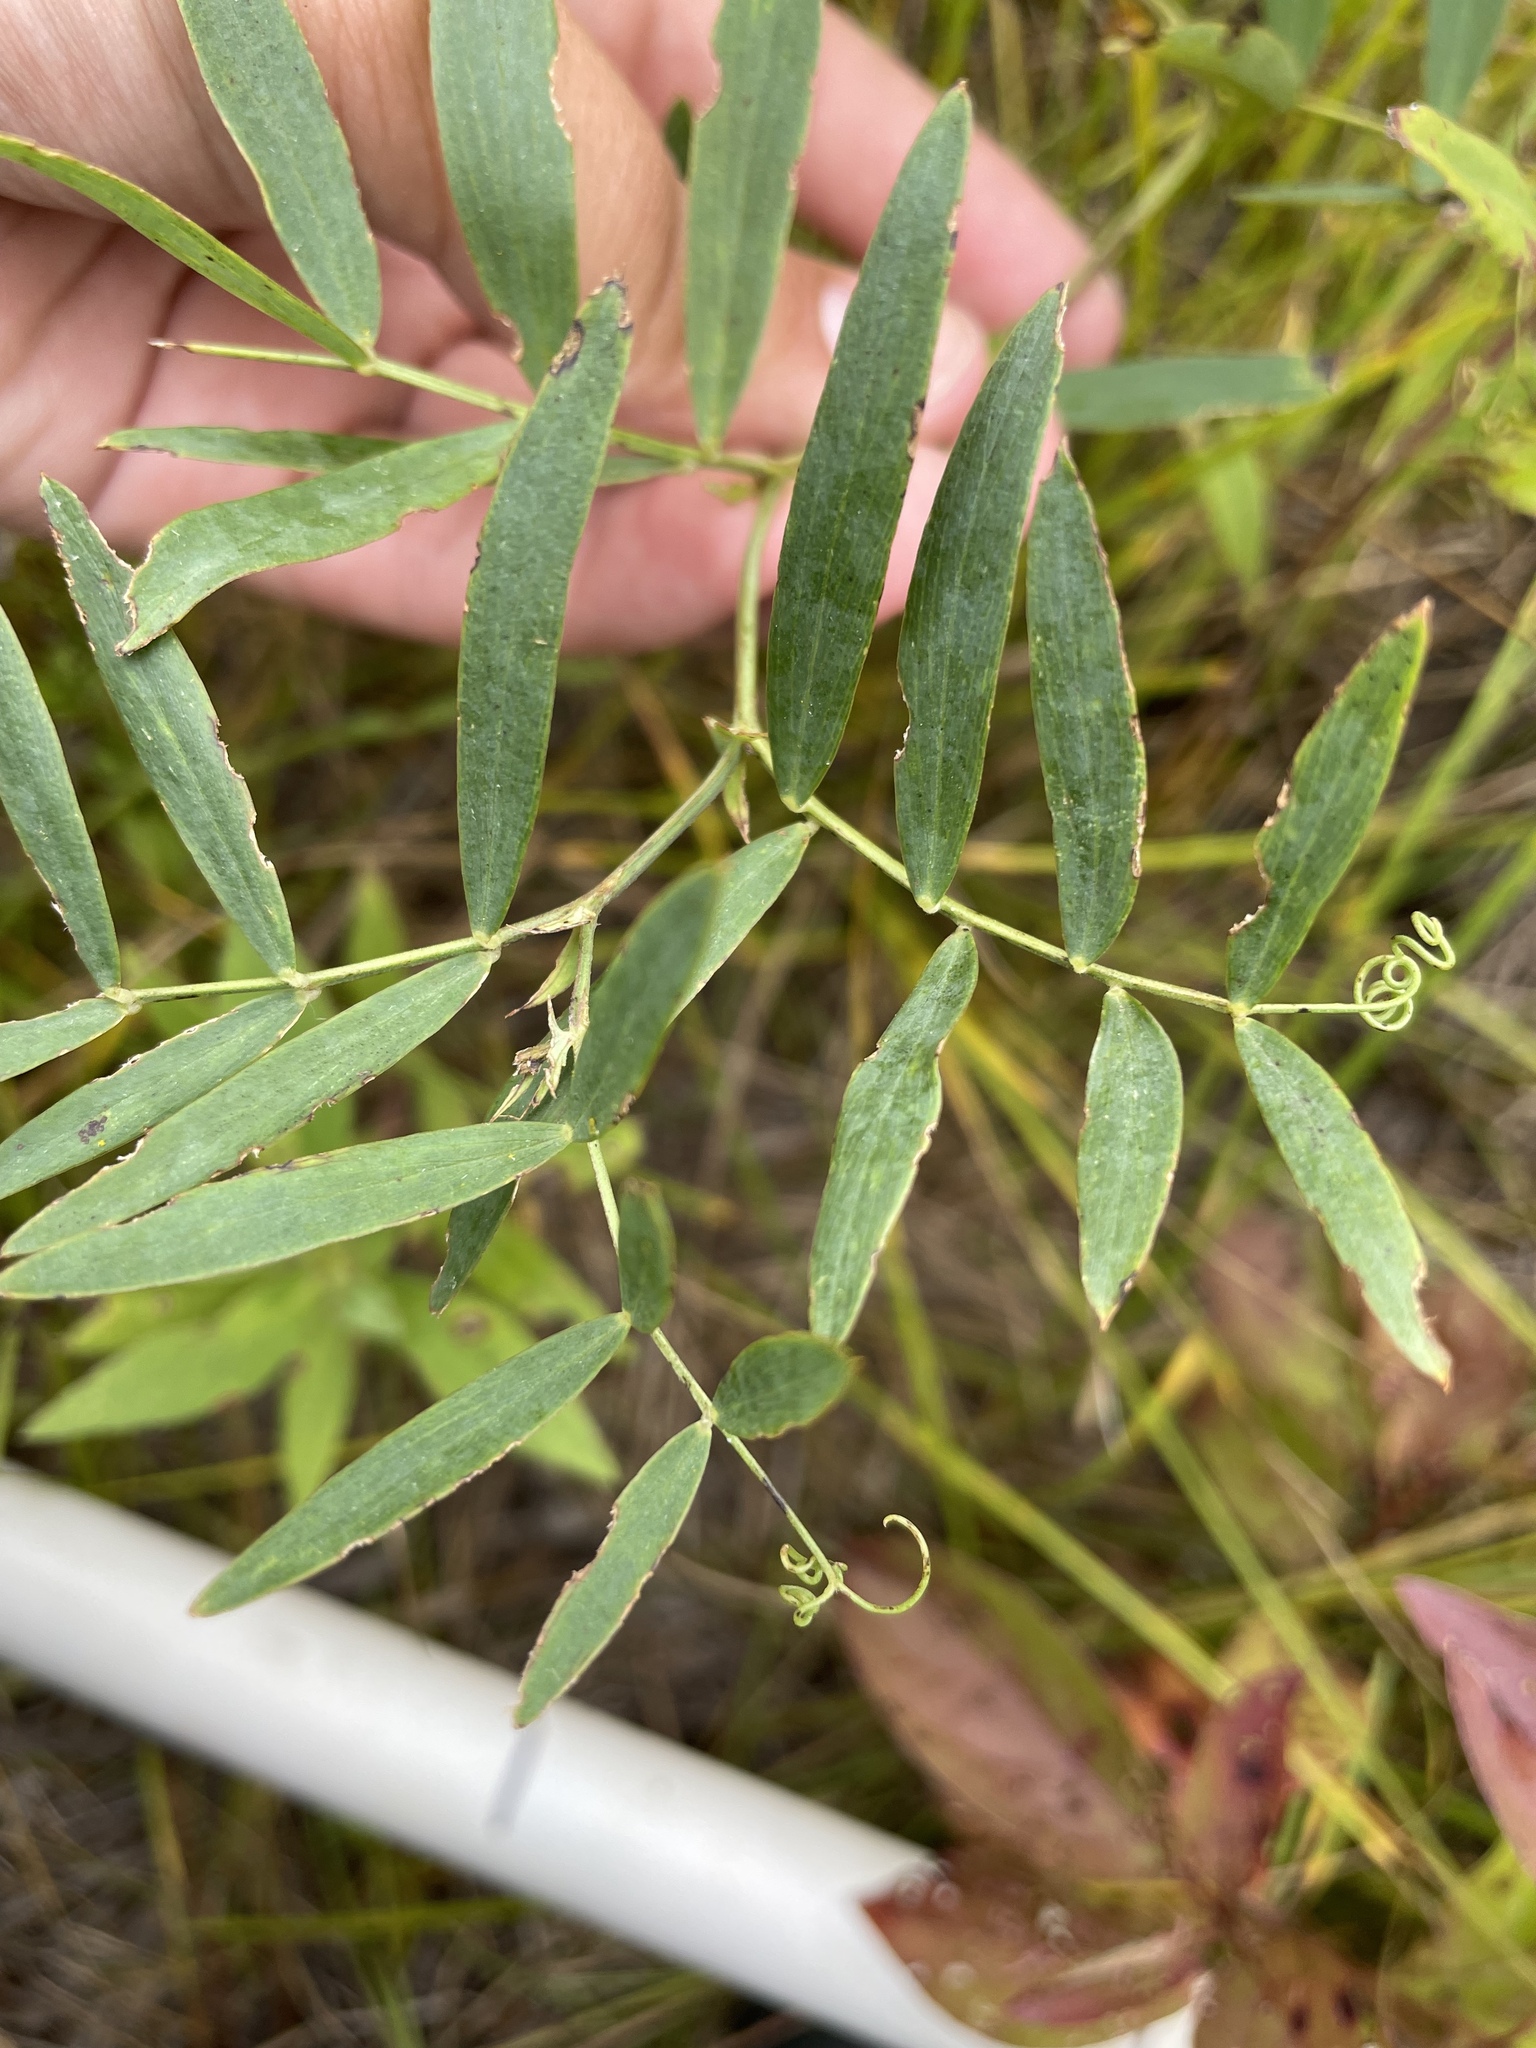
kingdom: Plantae
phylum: Tracheophyta
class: Magnoliopsida
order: Fabales
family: Fabaceae
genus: Lathyrus
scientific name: Lathyrus palustris
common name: Marsh pea
